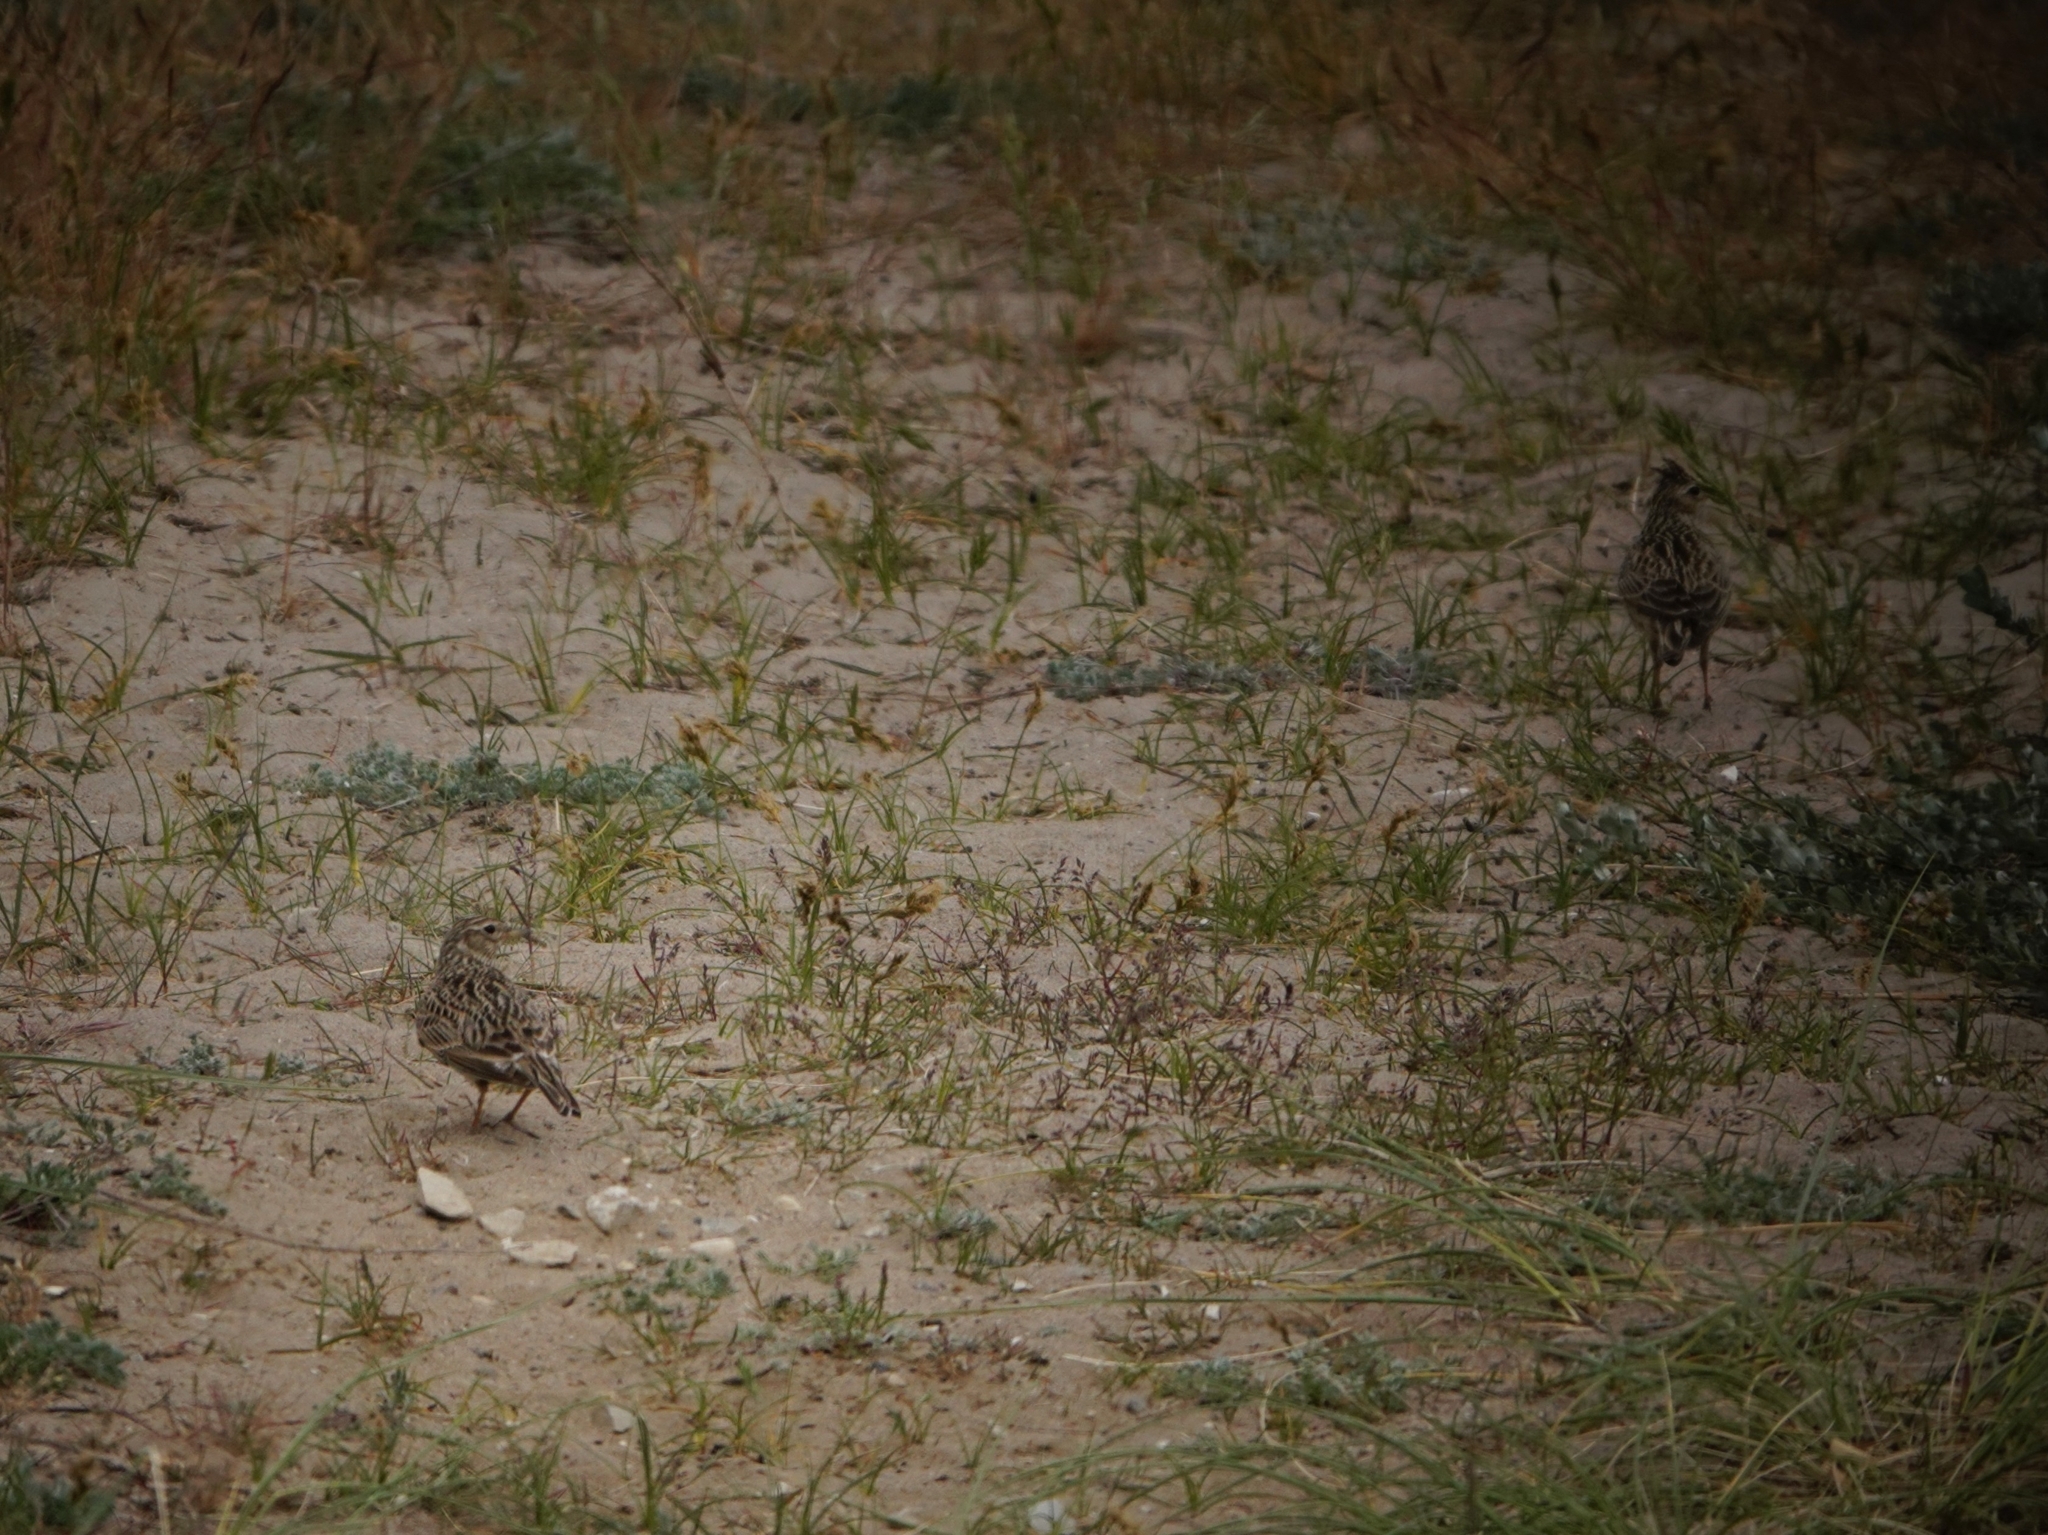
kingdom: Animalia
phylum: Chordata
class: Aves
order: Passeriformes
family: Alaudidae
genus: Alauda
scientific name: Alauda arvensis
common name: Eurasian skylark
